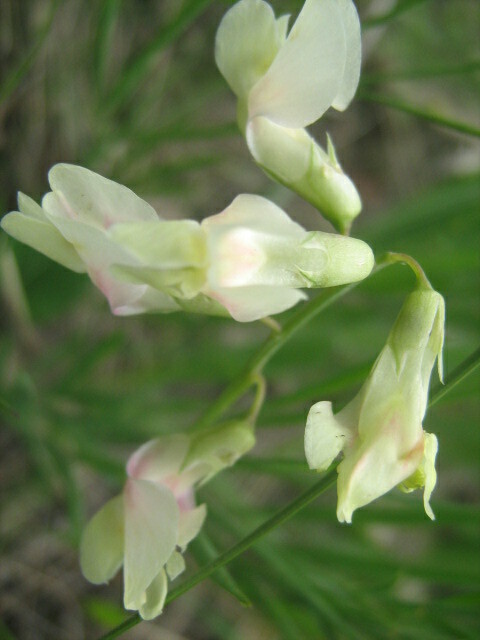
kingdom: Plantae
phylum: Tracheophyta
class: Magnoliopsida
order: Fabales
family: Fabaceae
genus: Lathyrus
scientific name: Lathyrus pannonicus
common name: Pea
